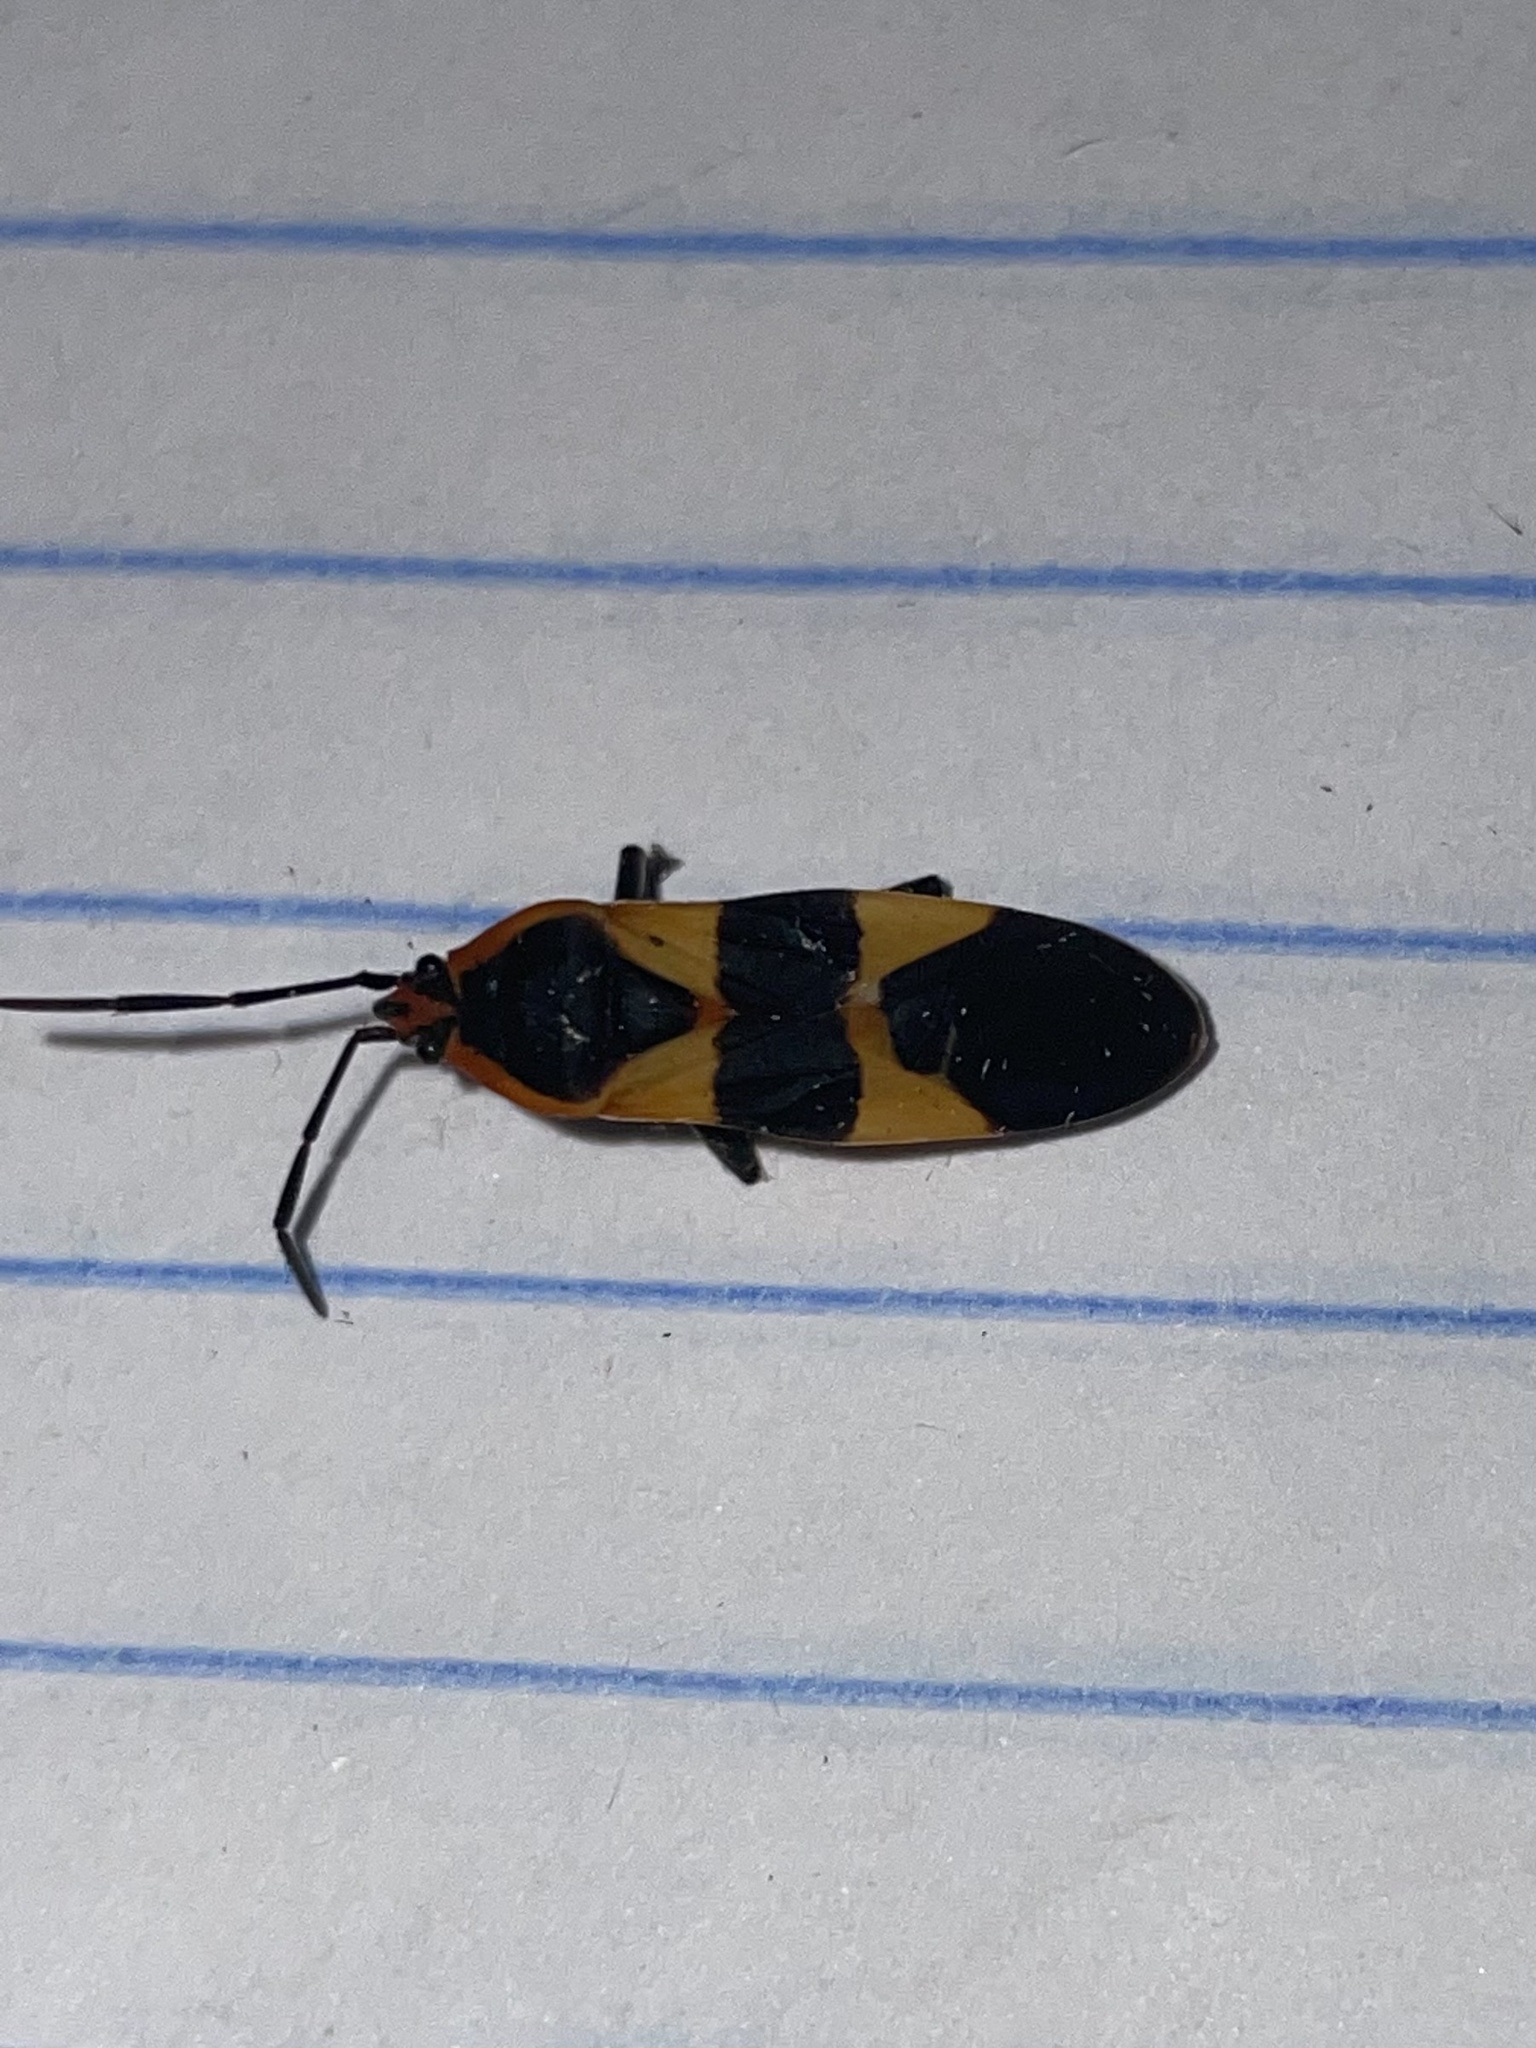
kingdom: Animalia
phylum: Arthropoda
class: Insecta
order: Hemiptera
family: Lygaeidae
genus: Oncopeltus
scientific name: Oncopeltus fasciatus
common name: Large milkweed bug
